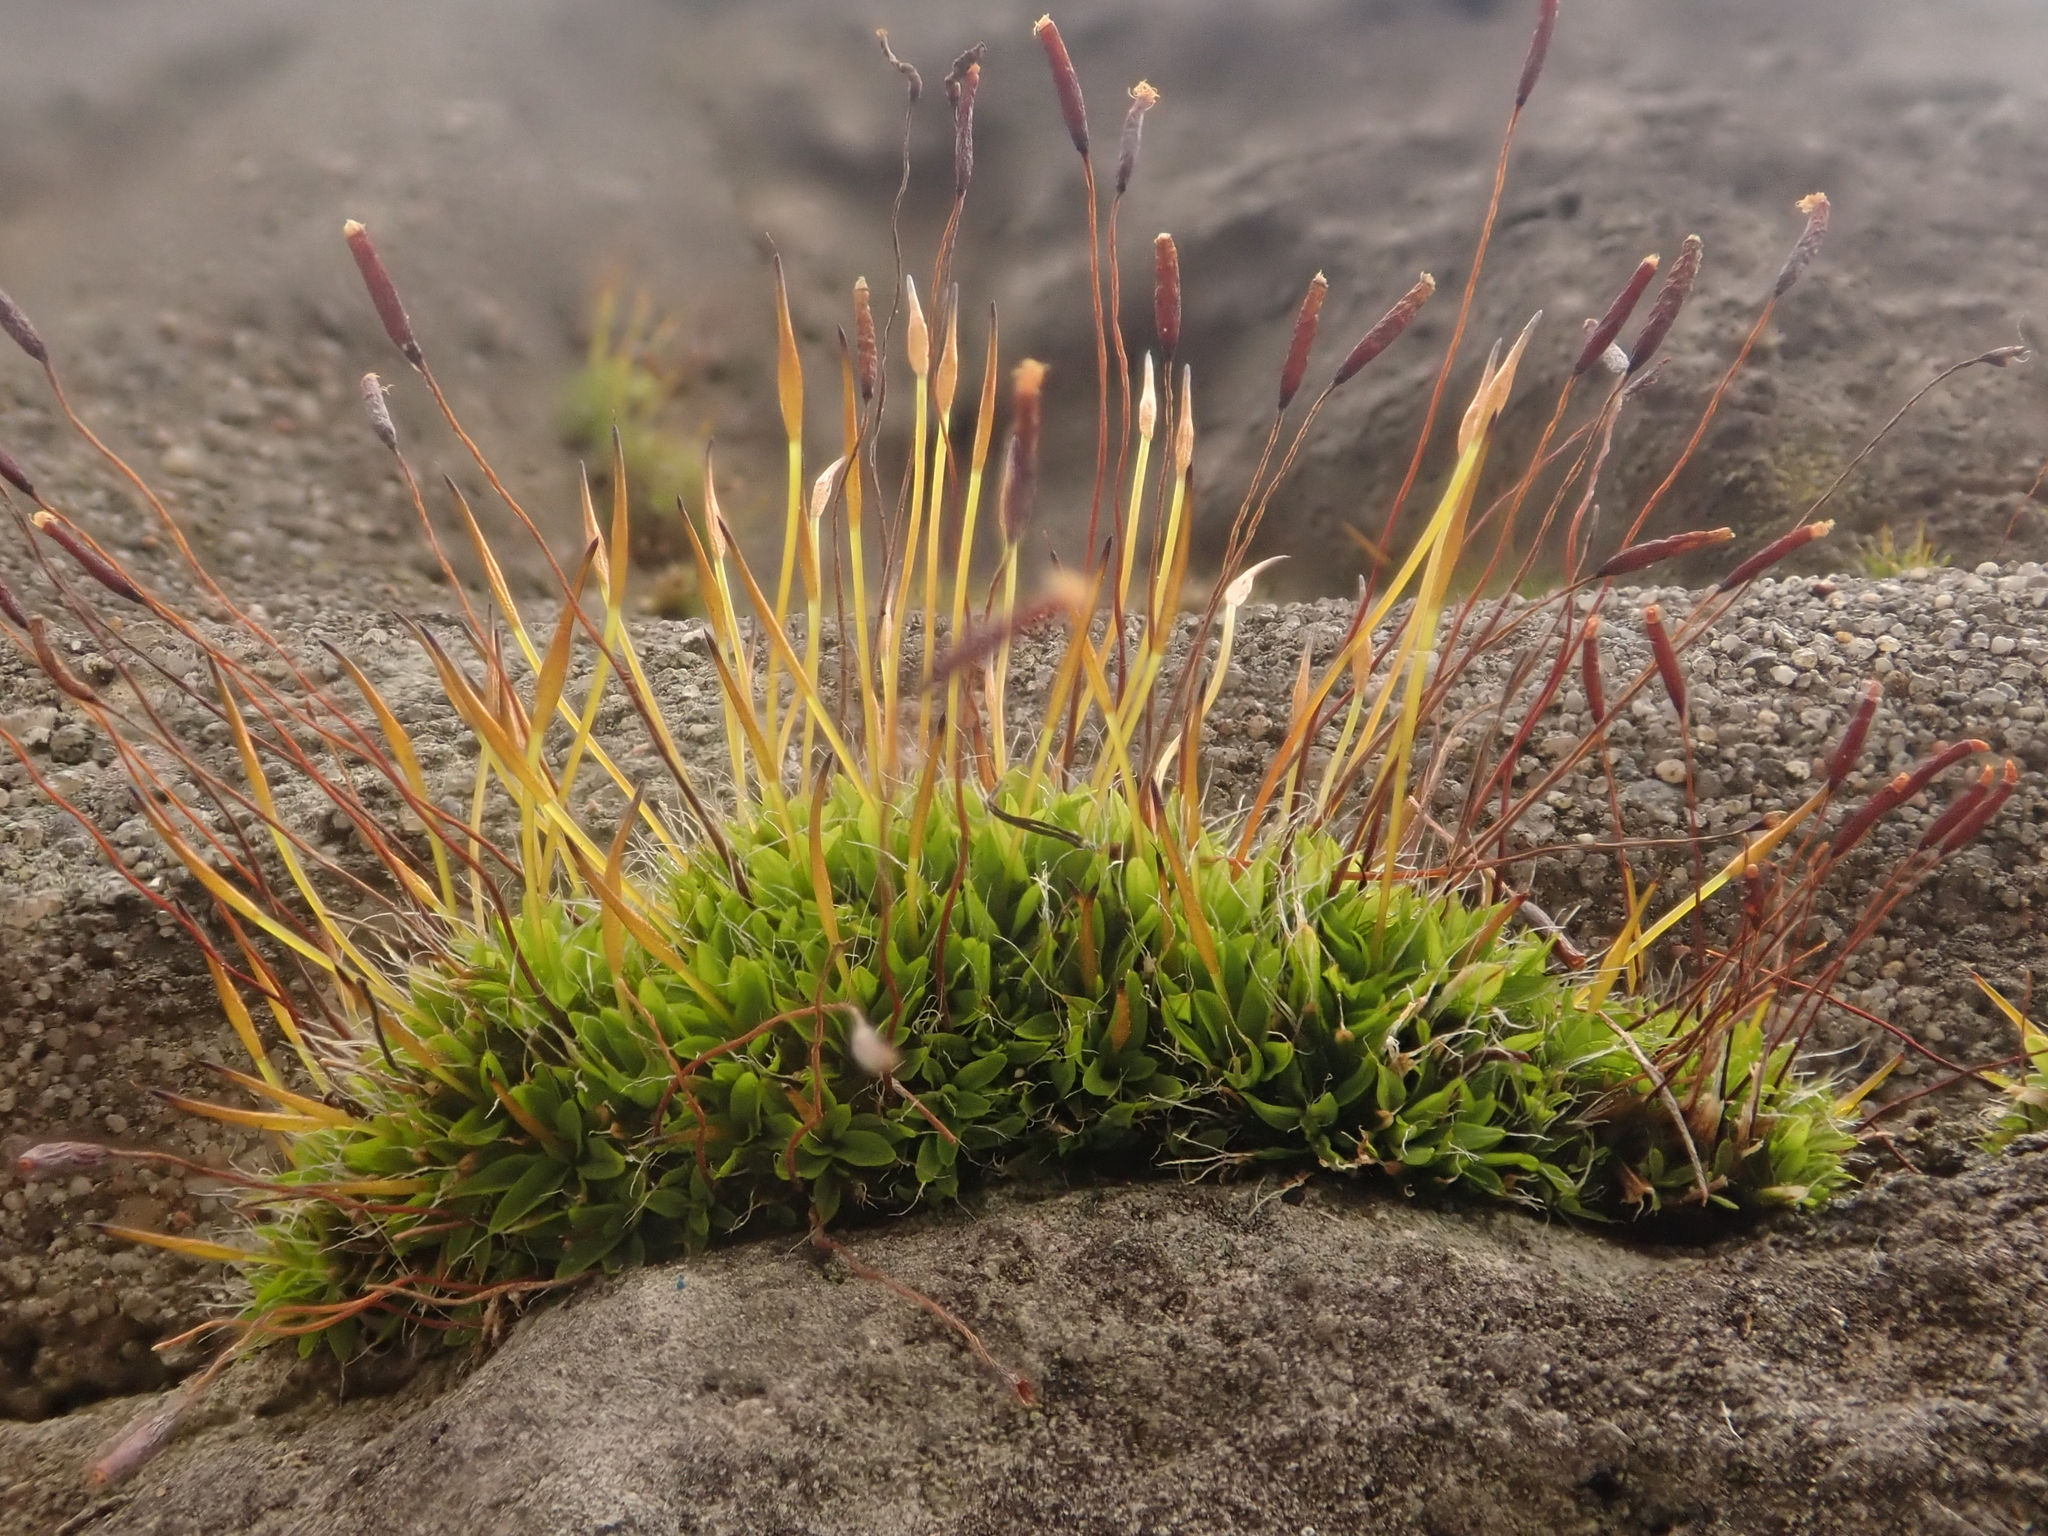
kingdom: Plantae
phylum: Bryophyta
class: Bryopsida
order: Pottiales
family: Pottiaceae
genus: Tortula
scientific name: Tortula muralis
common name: Wall screw-moss
